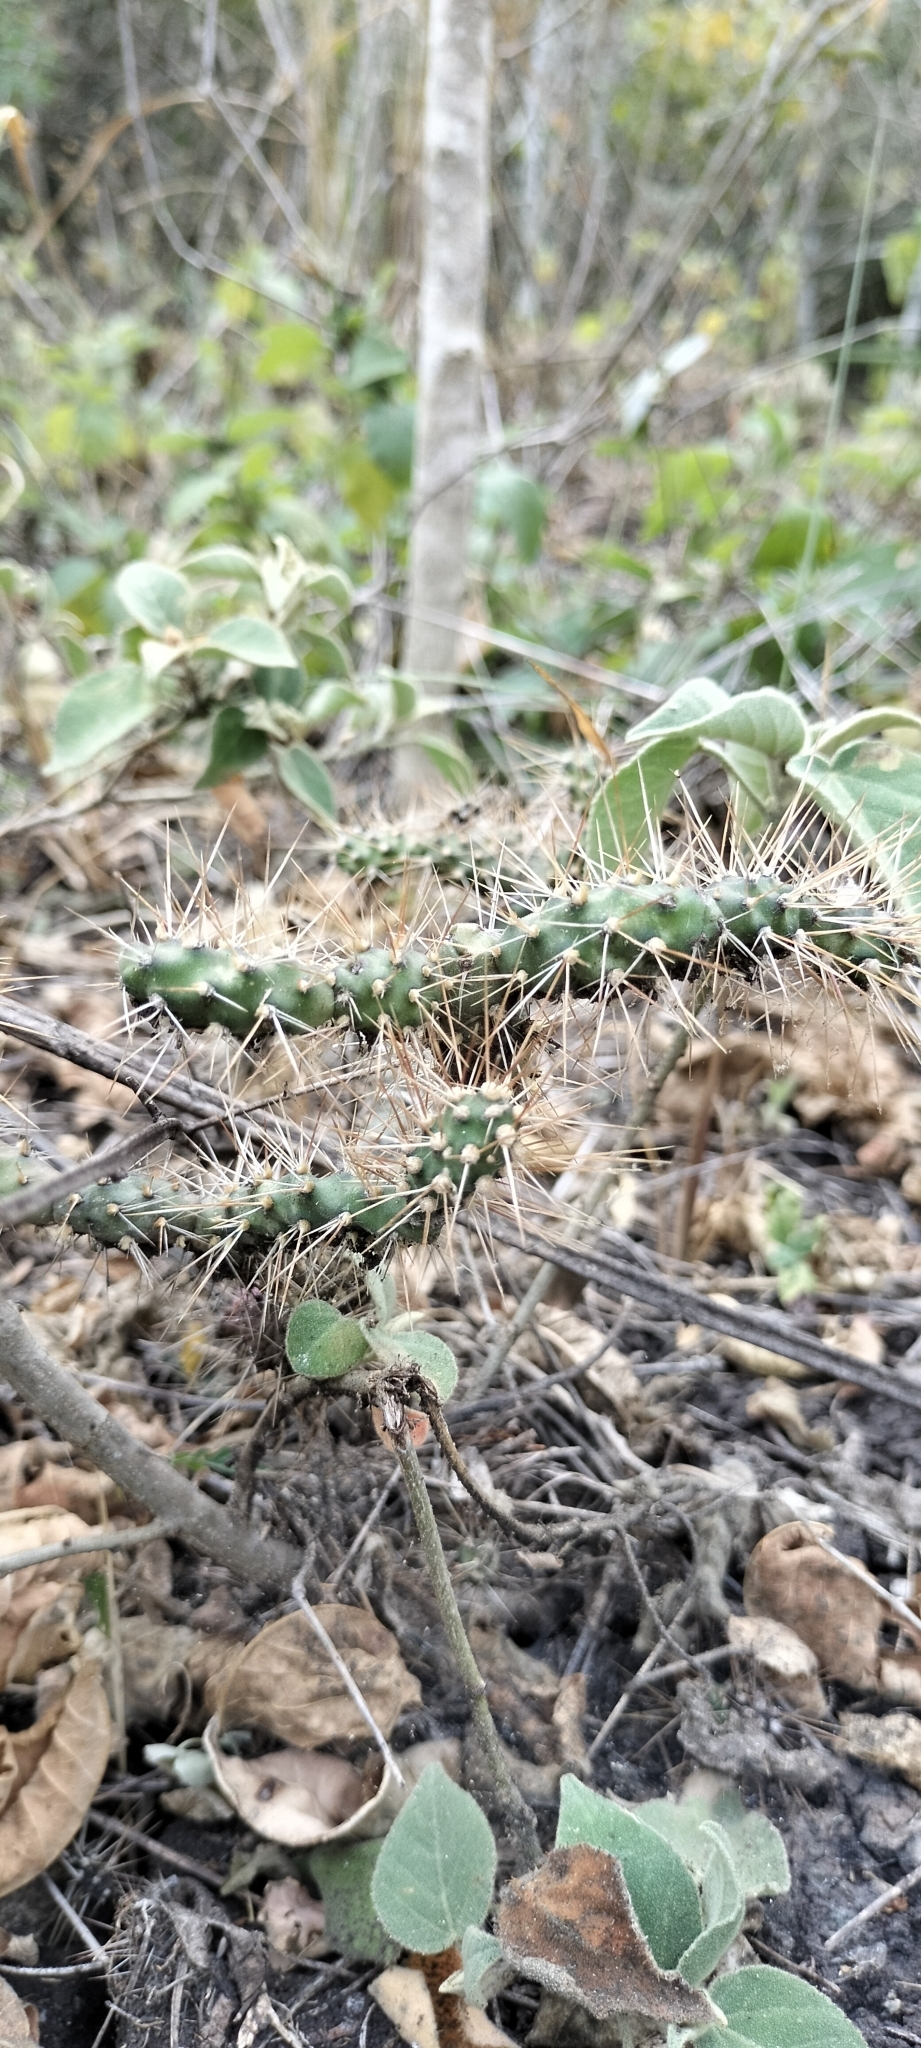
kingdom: Plantae
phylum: Tracheophyta
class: Magnoliopsida
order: Caryophyllales
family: Cactaceae
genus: Opuntia
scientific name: Opuntia pubescens
